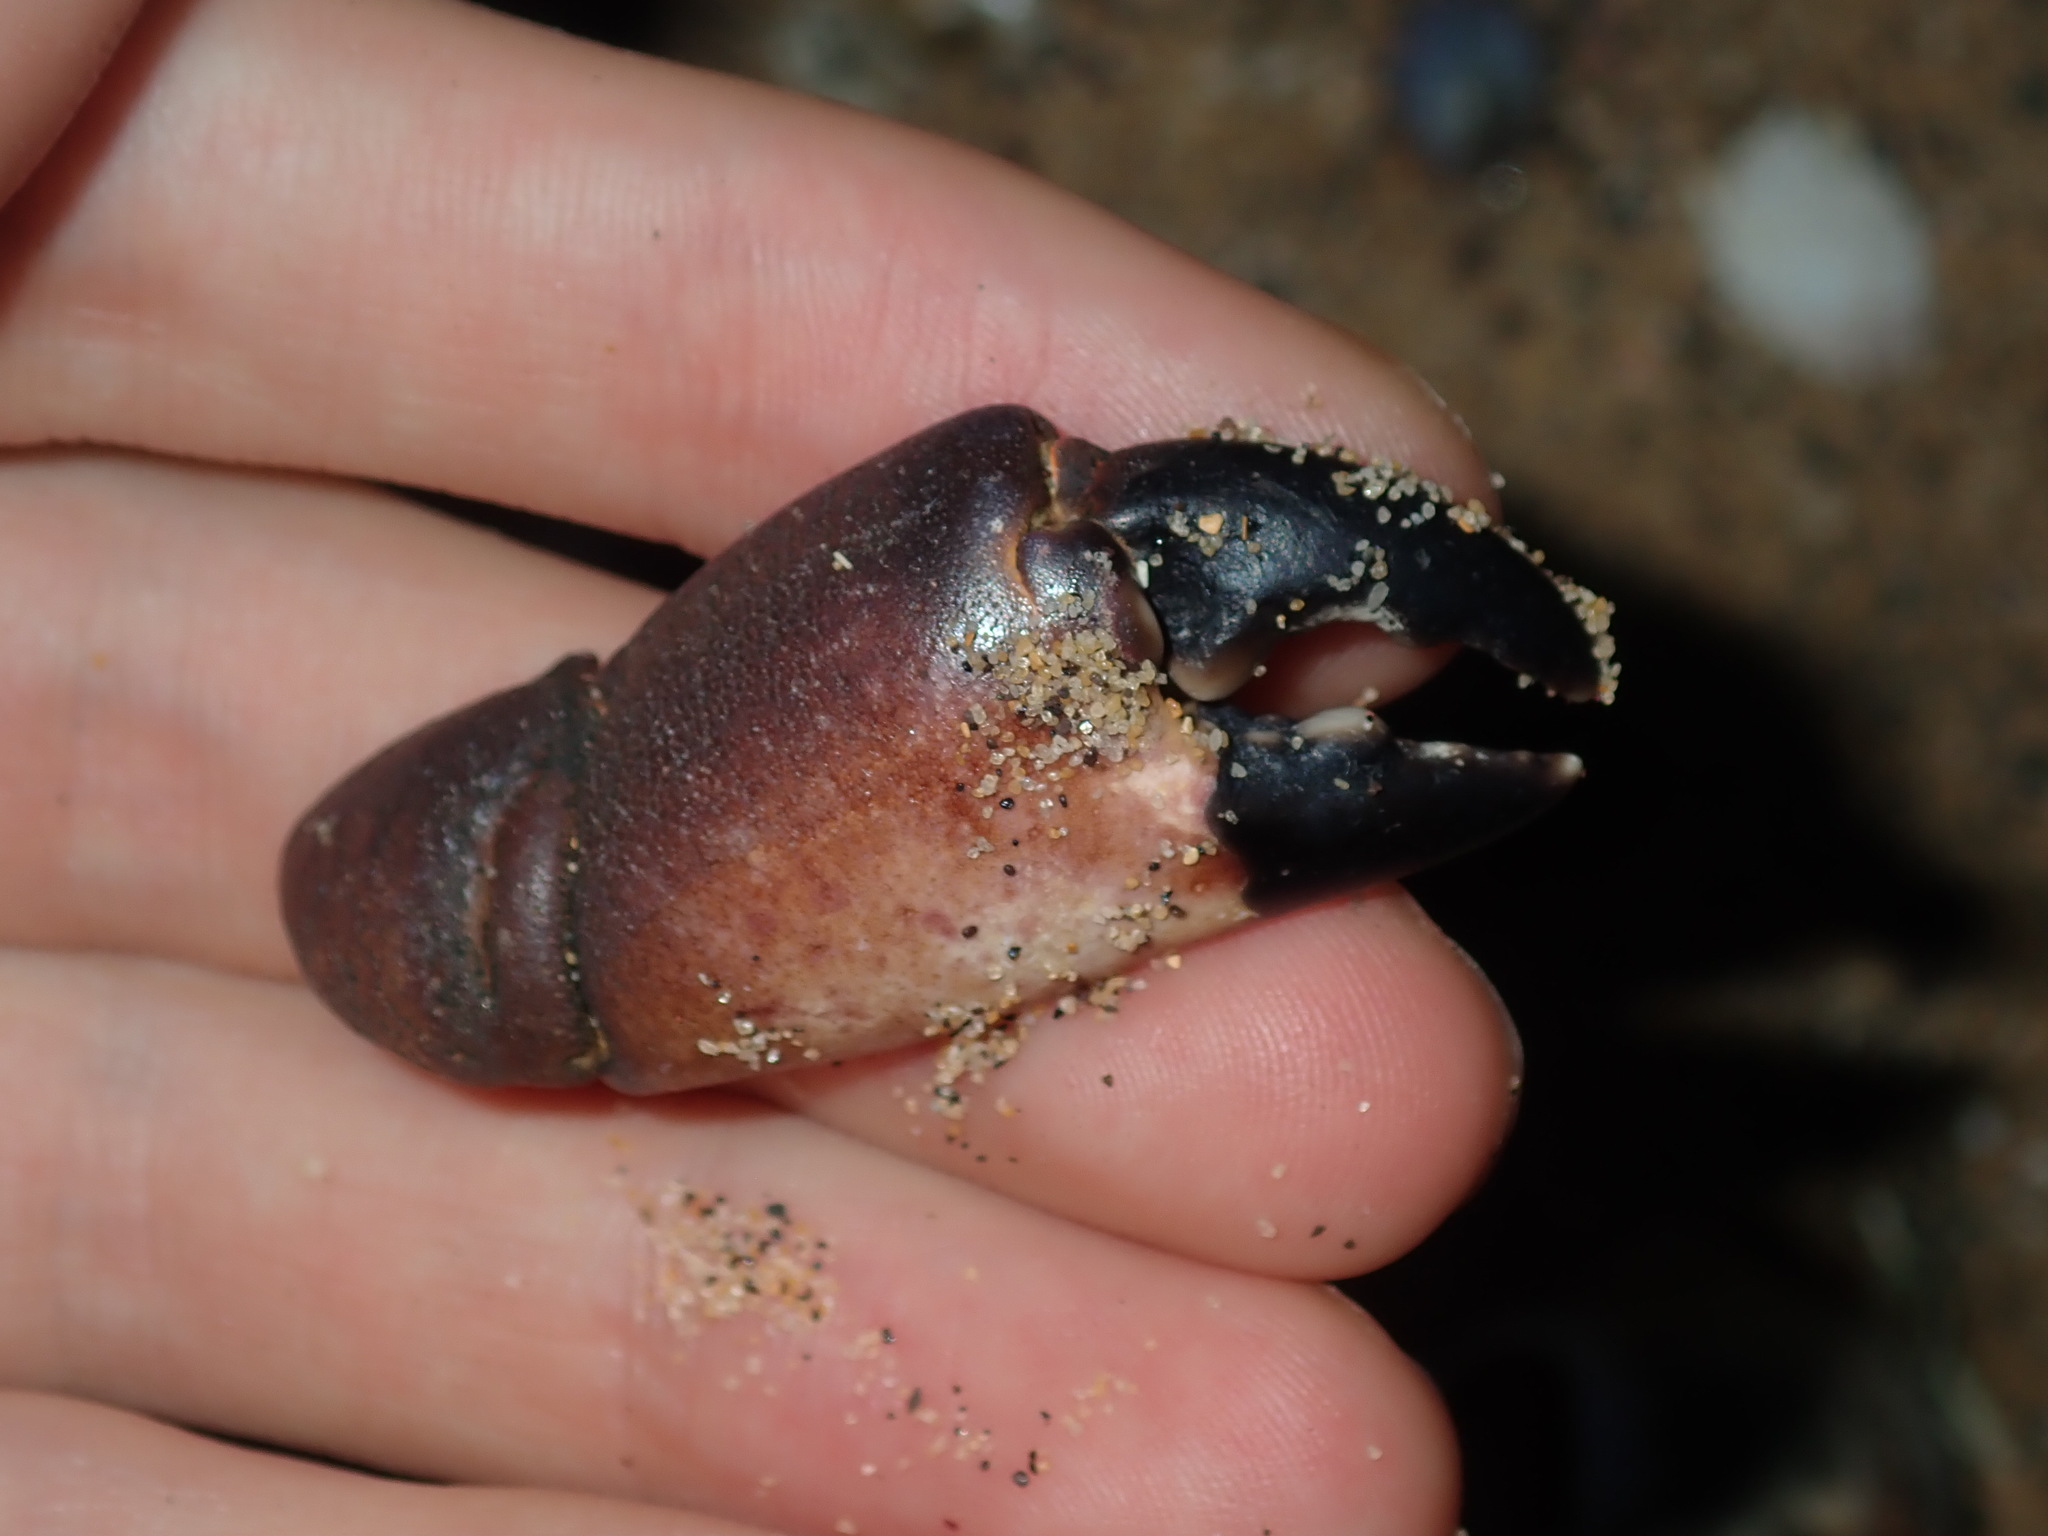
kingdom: Animalia
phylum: Arthropoda
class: Malacostraca
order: Decapoda
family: Oziidae
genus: Ozius
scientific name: Ozius truncatus
